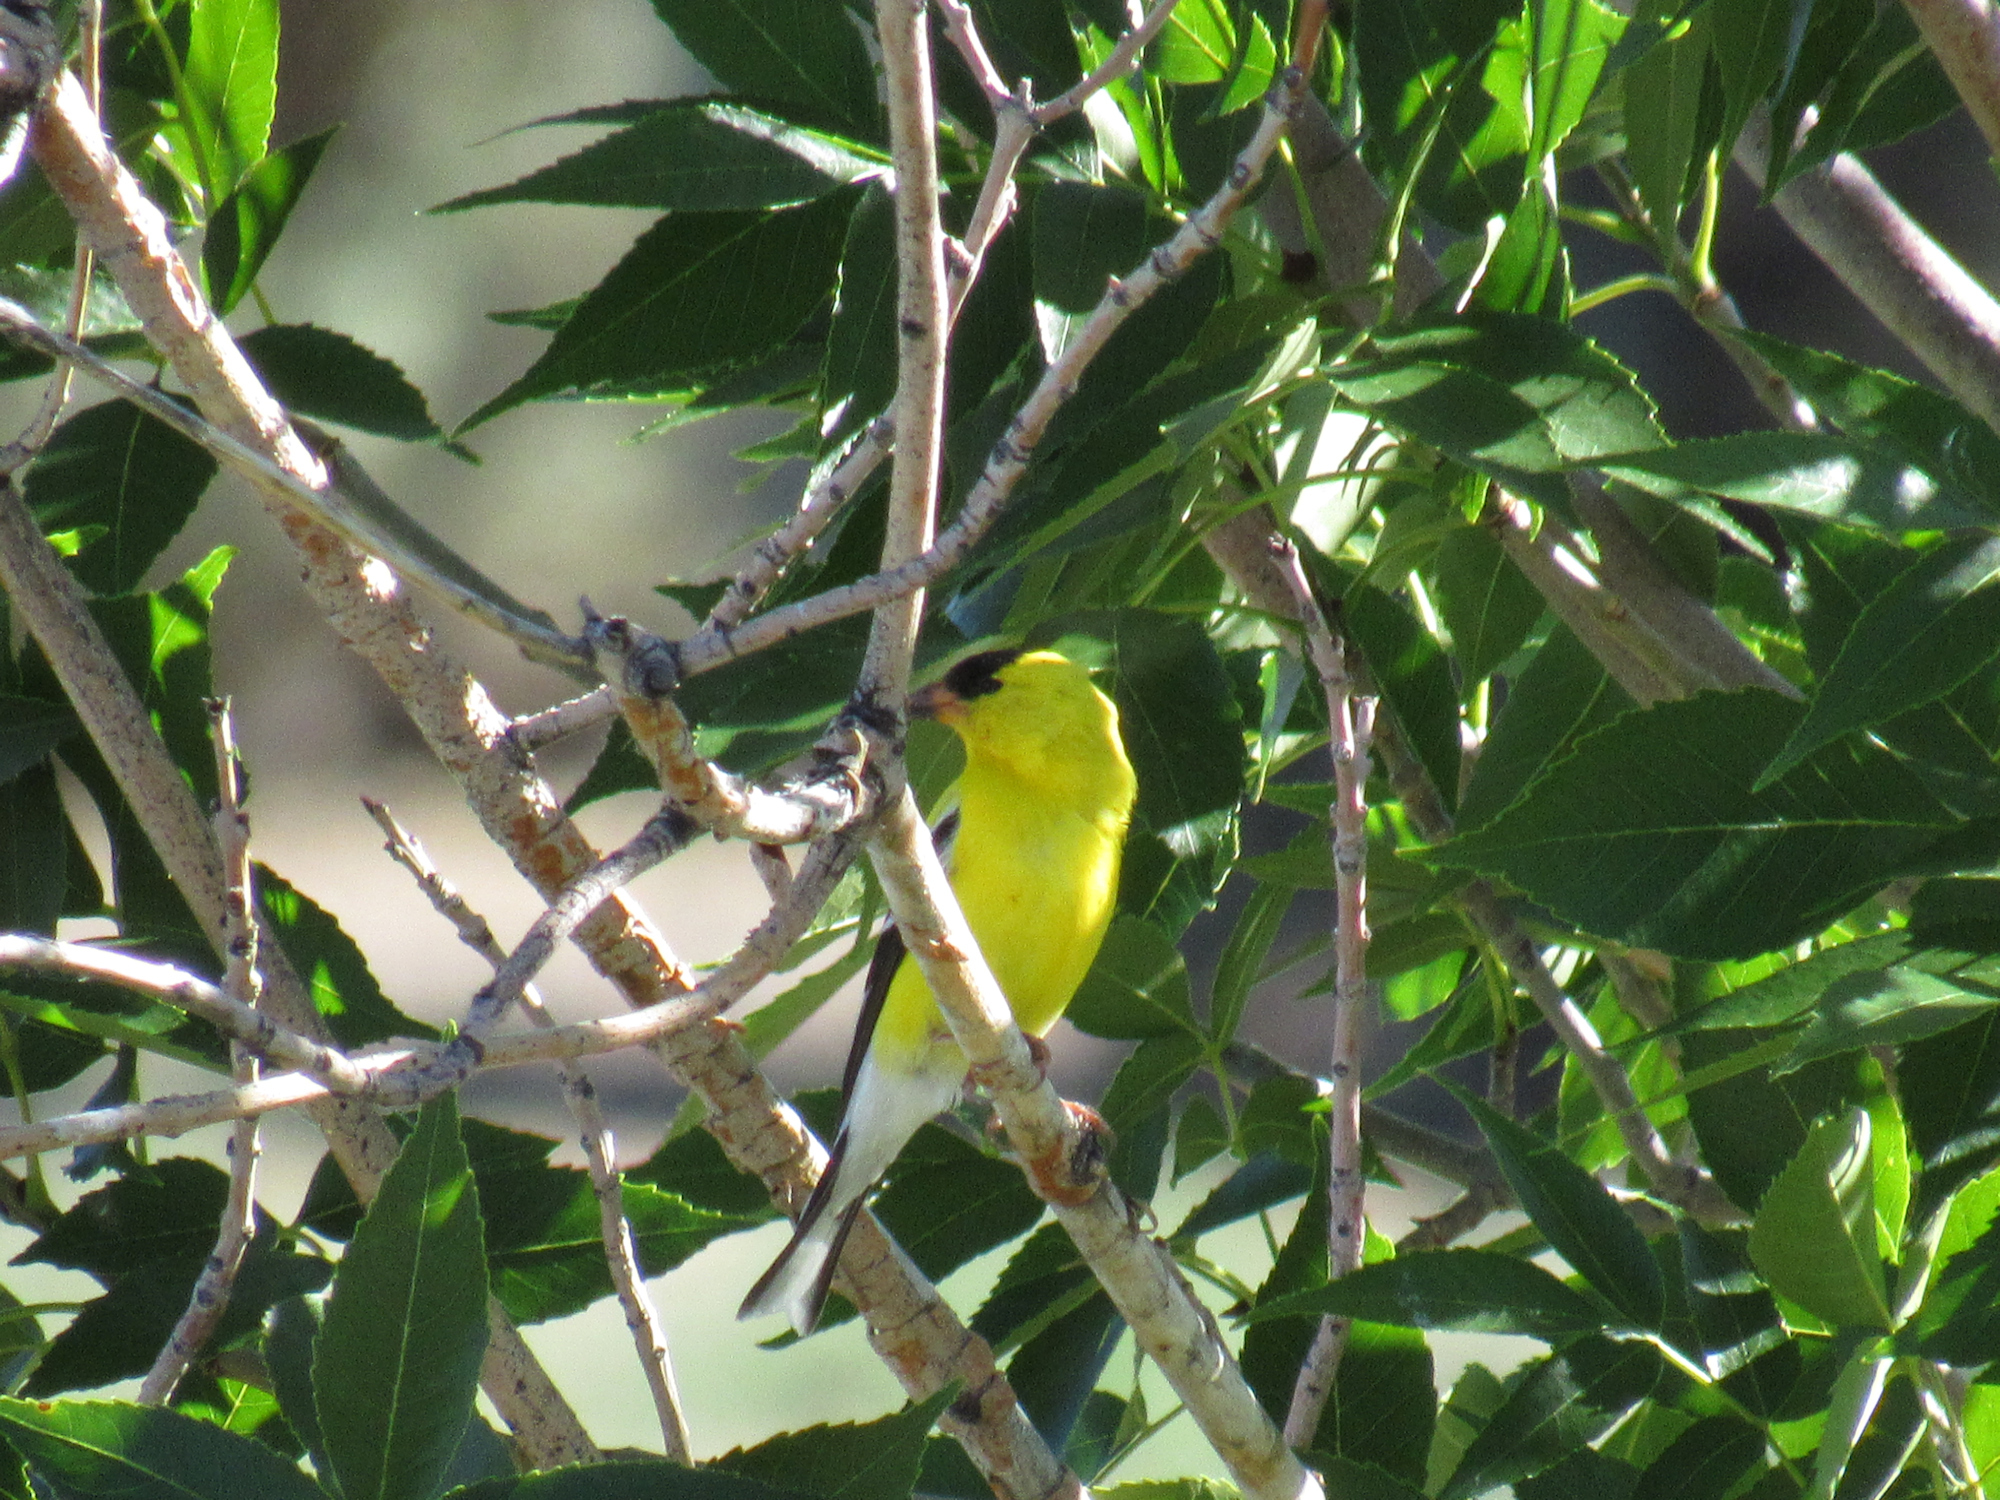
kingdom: Animalia
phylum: Chordata
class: Aves
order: Passeriformes
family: Fringillidae
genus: Spinus
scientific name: Spinus tristis
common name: American goldfinch
